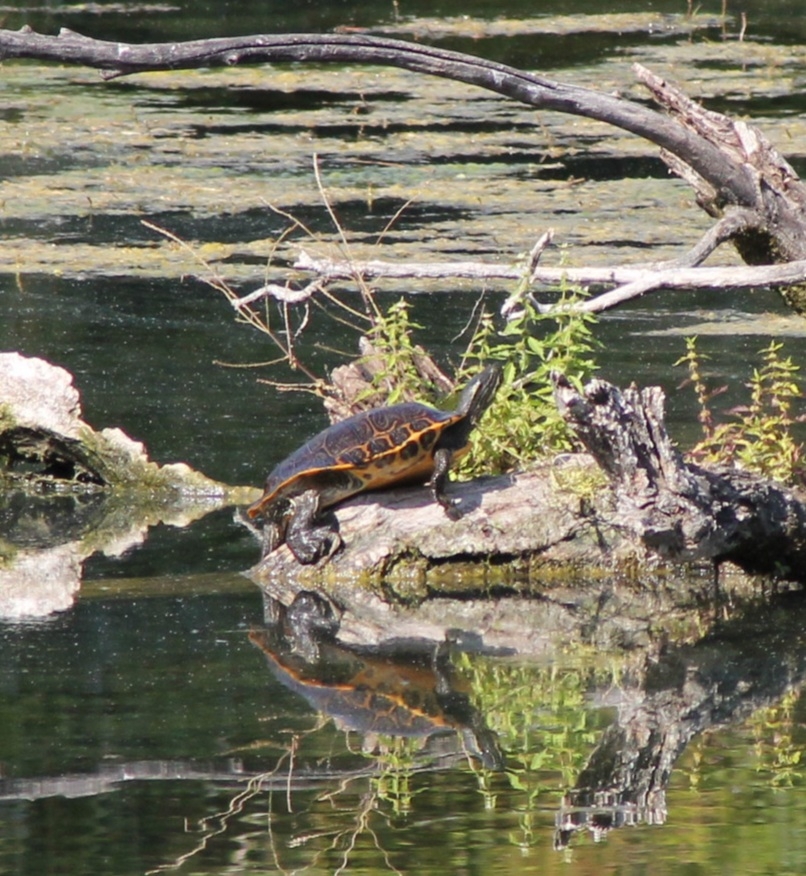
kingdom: Animalia
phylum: Chordata
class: Testudines
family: Emydidae
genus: Pseudemys
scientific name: Pseudemys concinna
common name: Eastern river cooter
